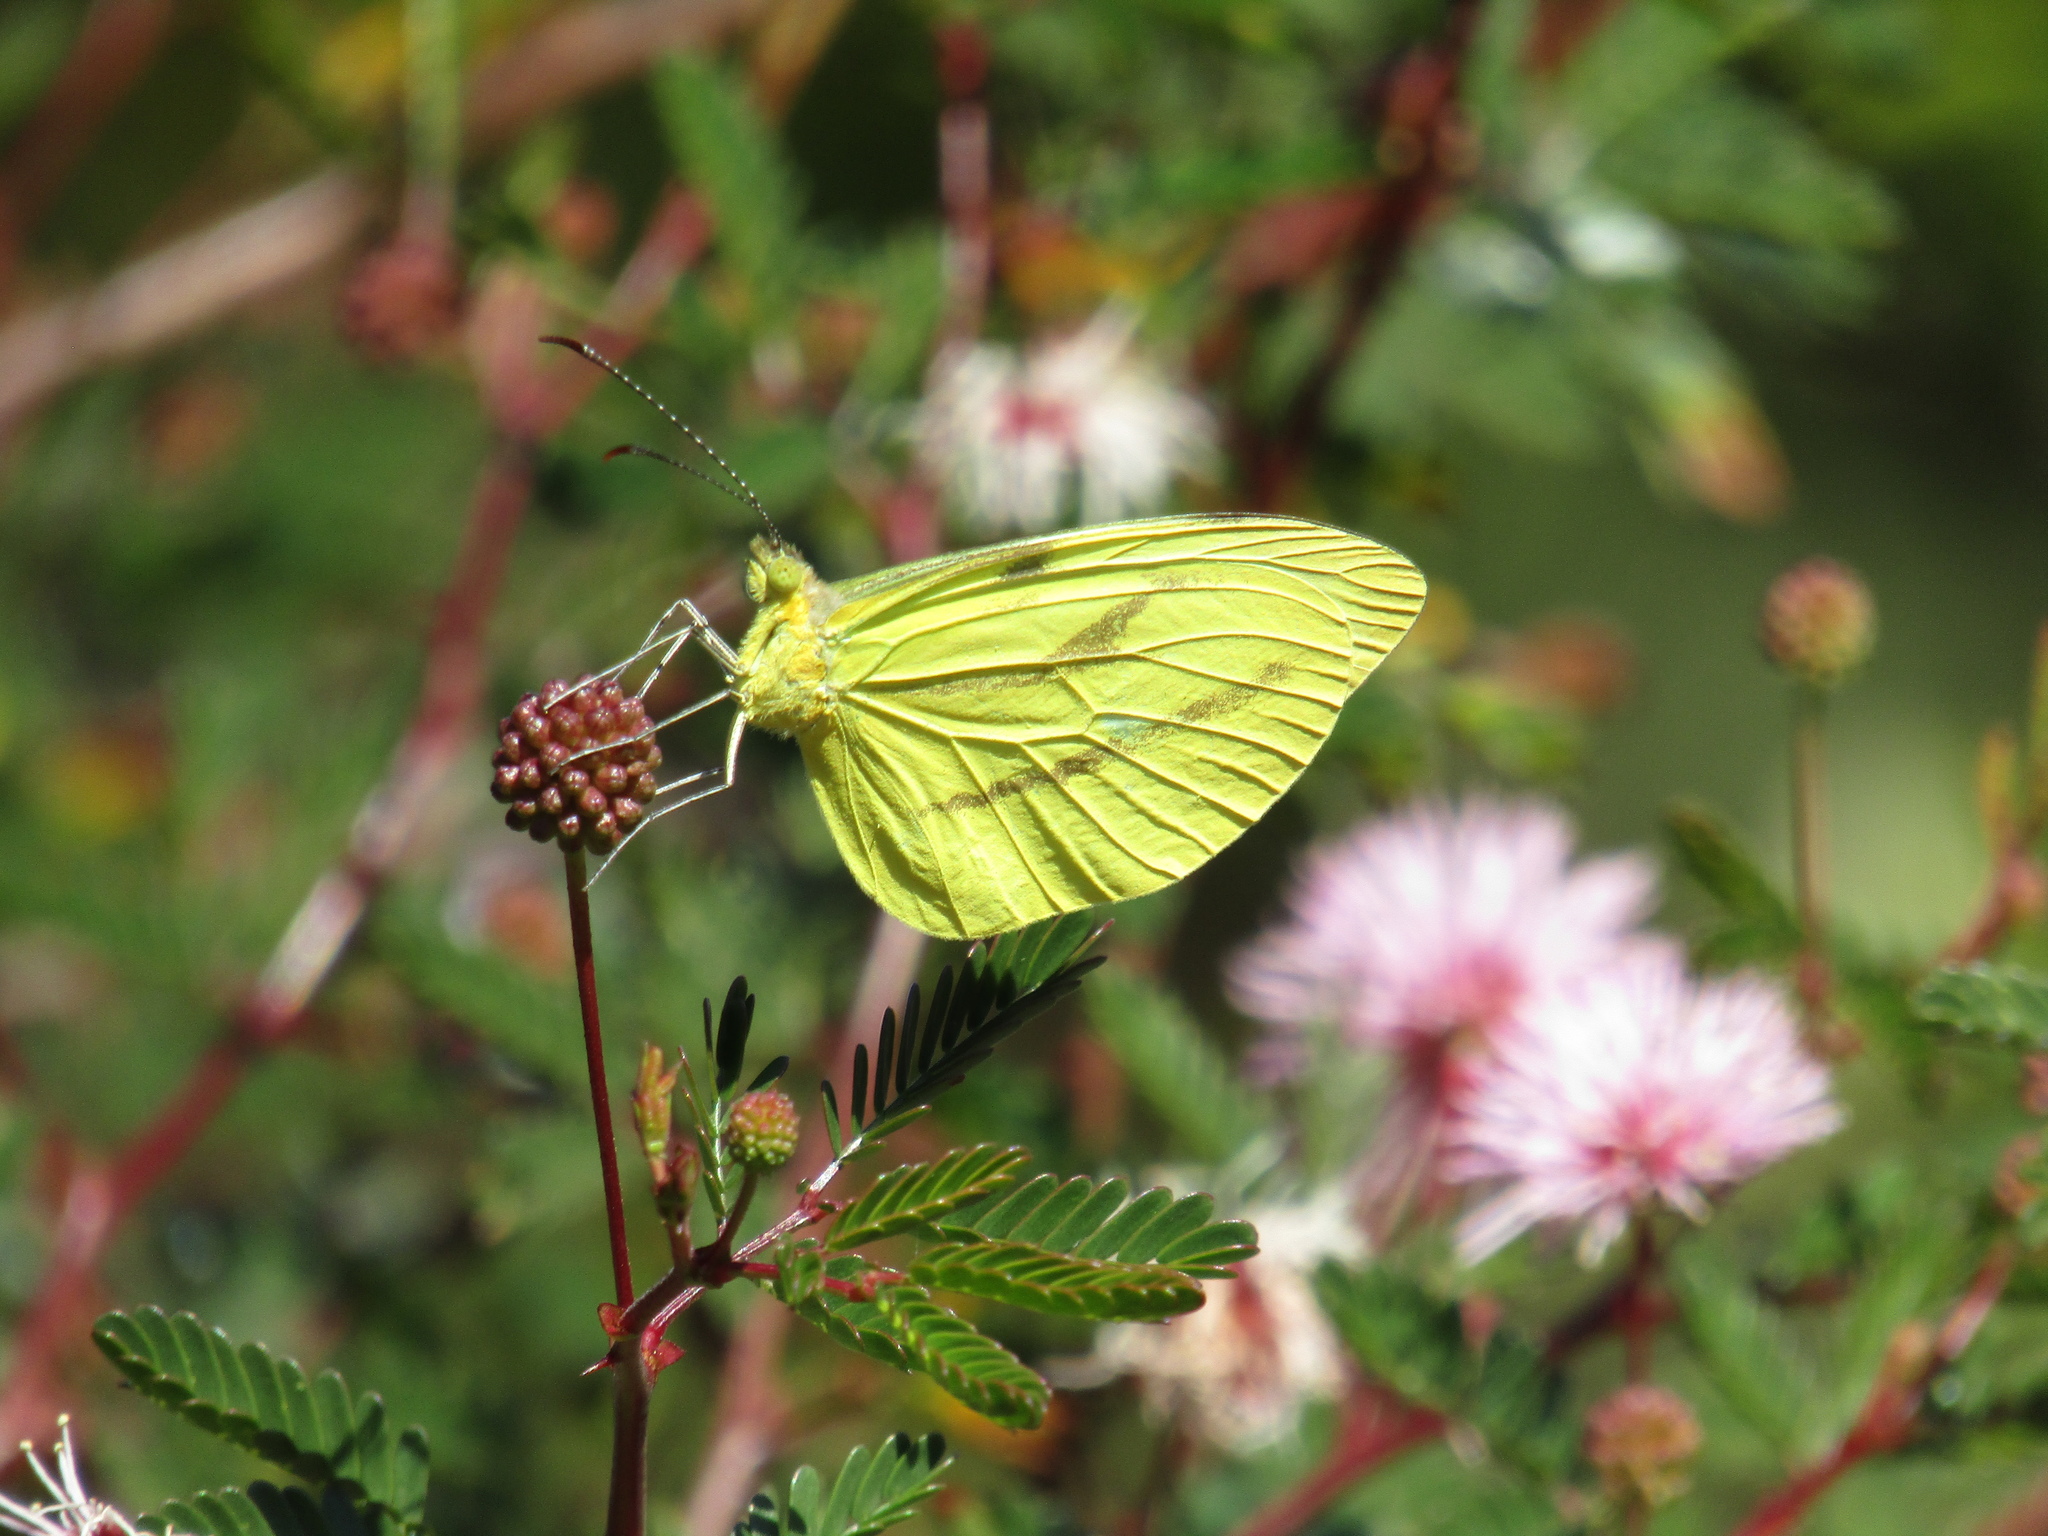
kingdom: Animalia
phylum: Arthropoda
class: Insecta
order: Lepidoptera
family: Pieridae
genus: Enantia
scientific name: Enantia lina
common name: White mimic-white
